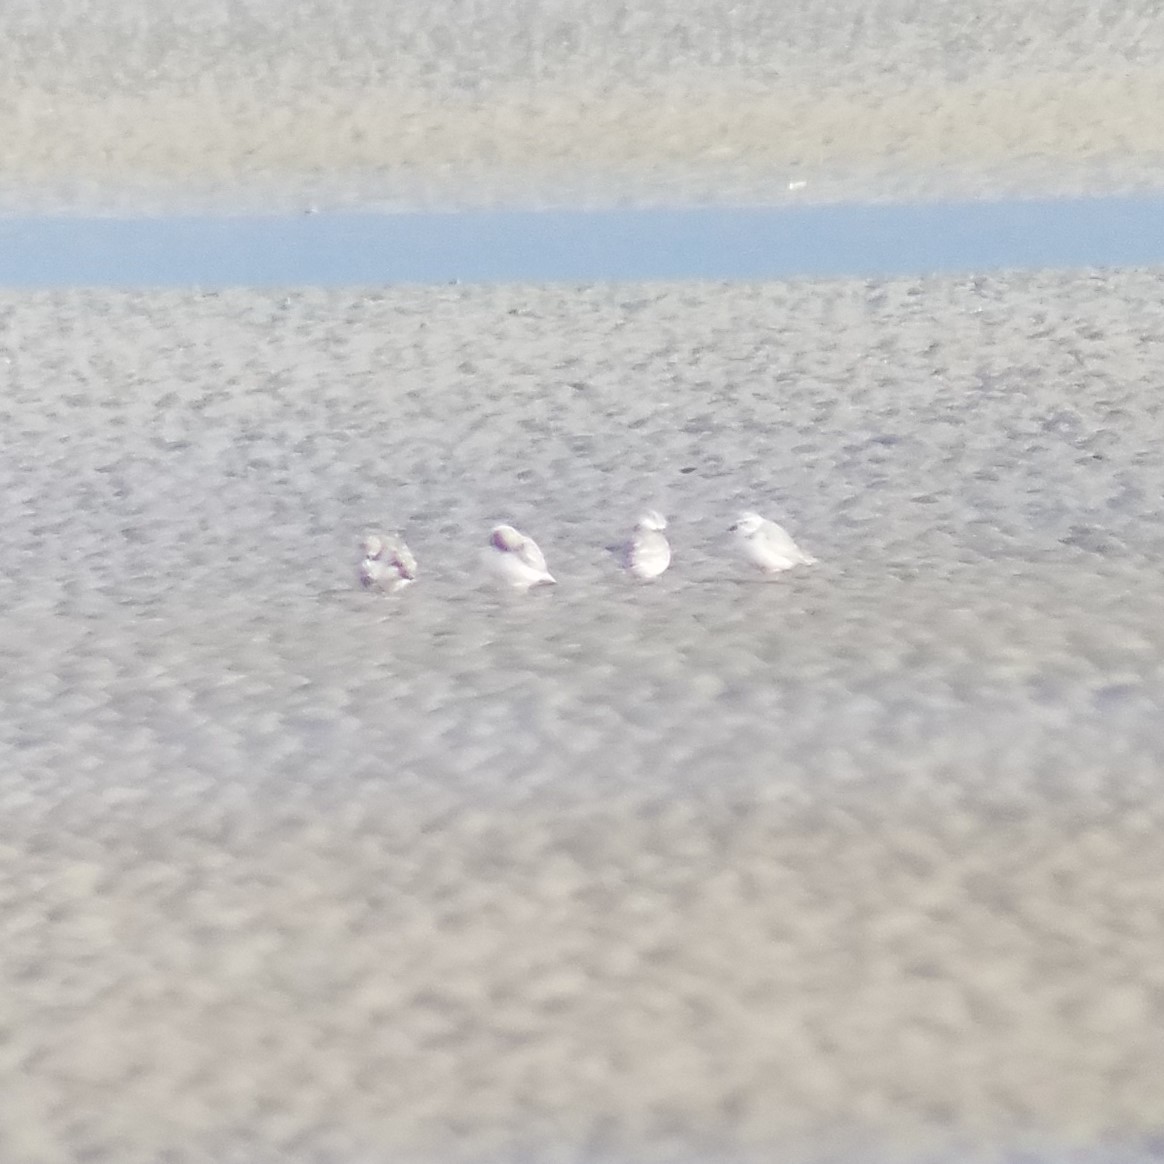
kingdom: Animalia
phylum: Chordata
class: Aves
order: Charadriiformes
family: Charadriidae
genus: Charadrius
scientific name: Charadrius melodus
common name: Piping plover
